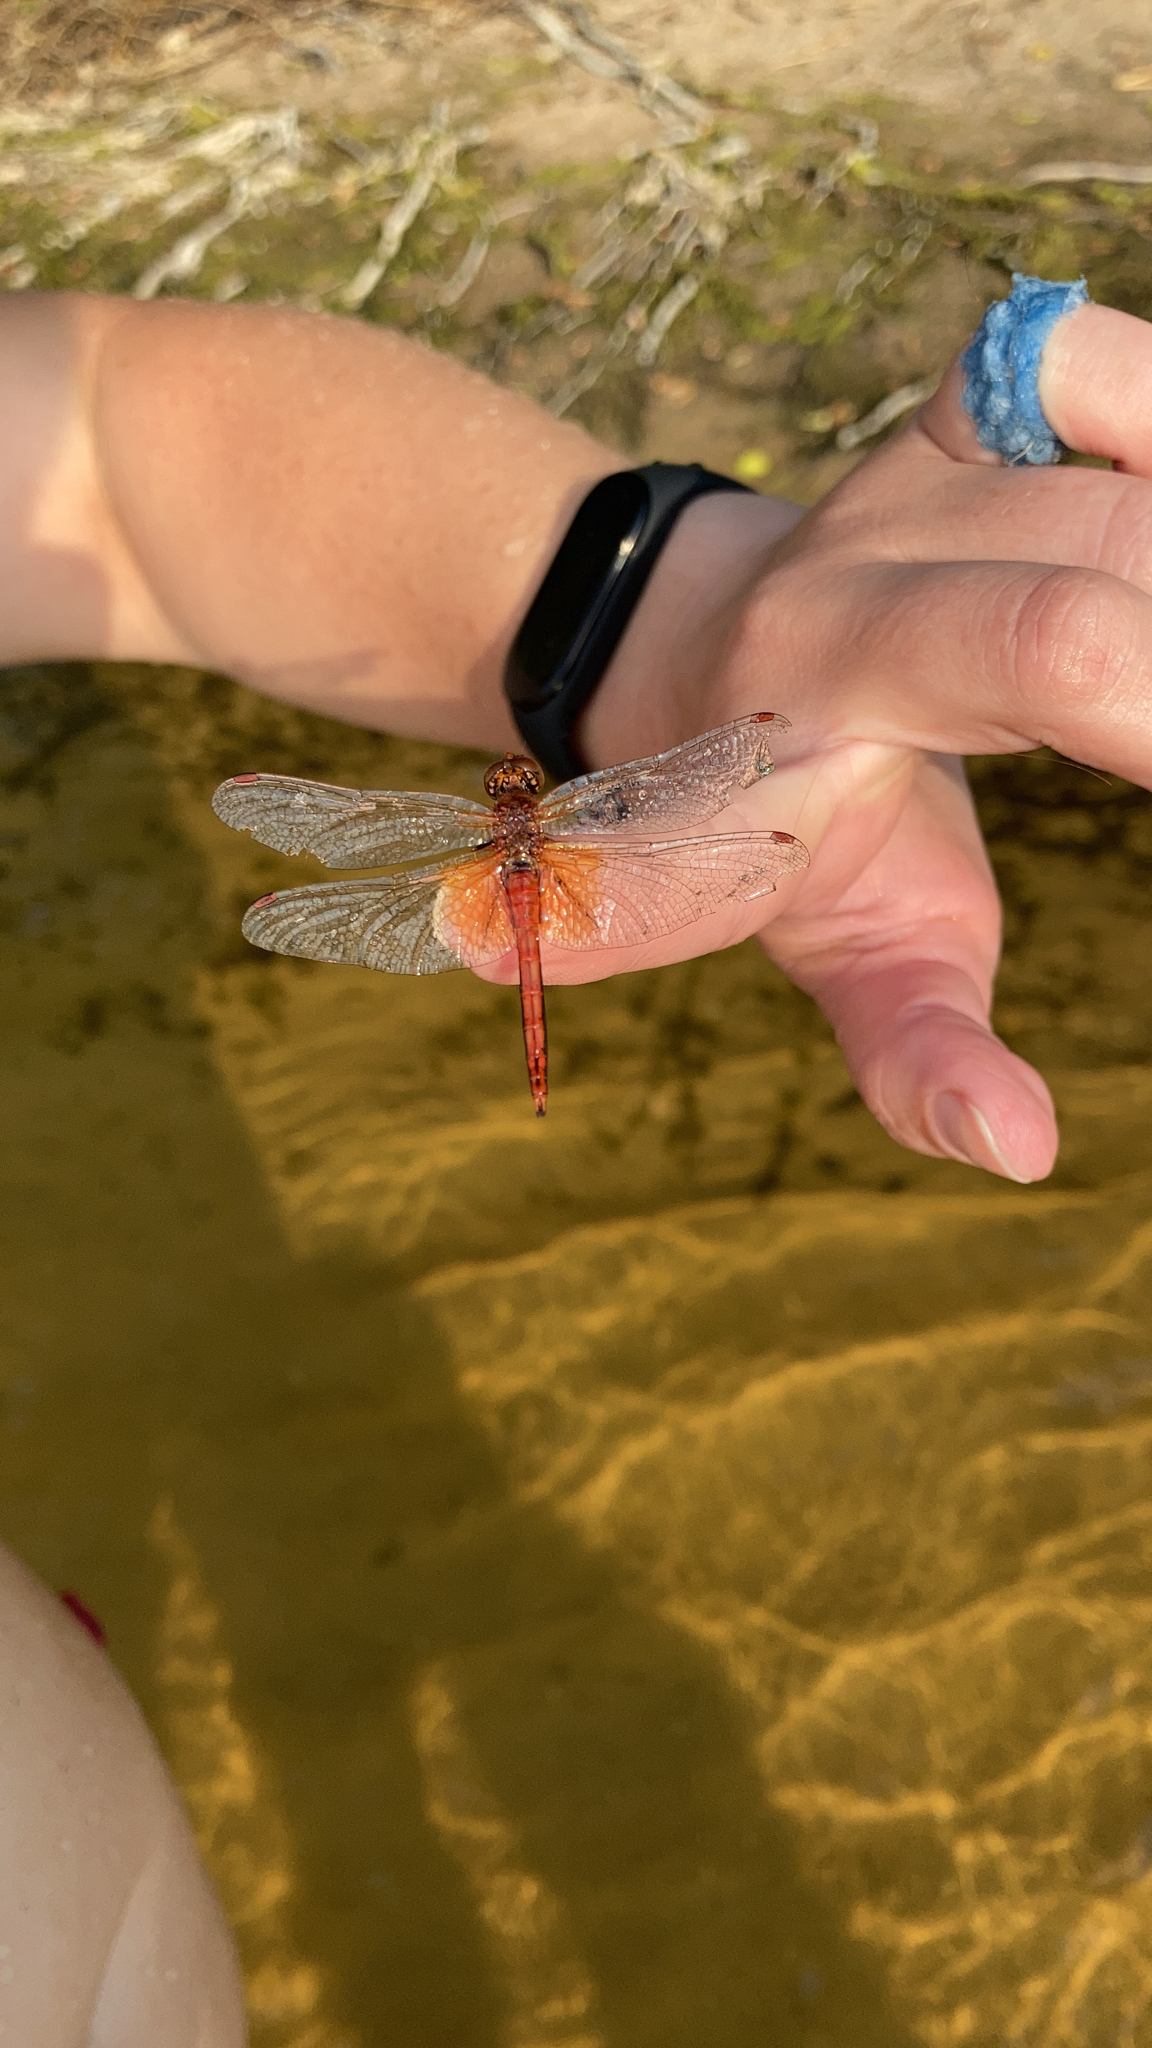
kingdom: Animalia
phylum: Arthropoda
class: Insecta
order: Odonata
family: Libellulidae
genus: Sympetrum
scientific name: Sympetrum flaveolum
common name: Yellow-winged darter
